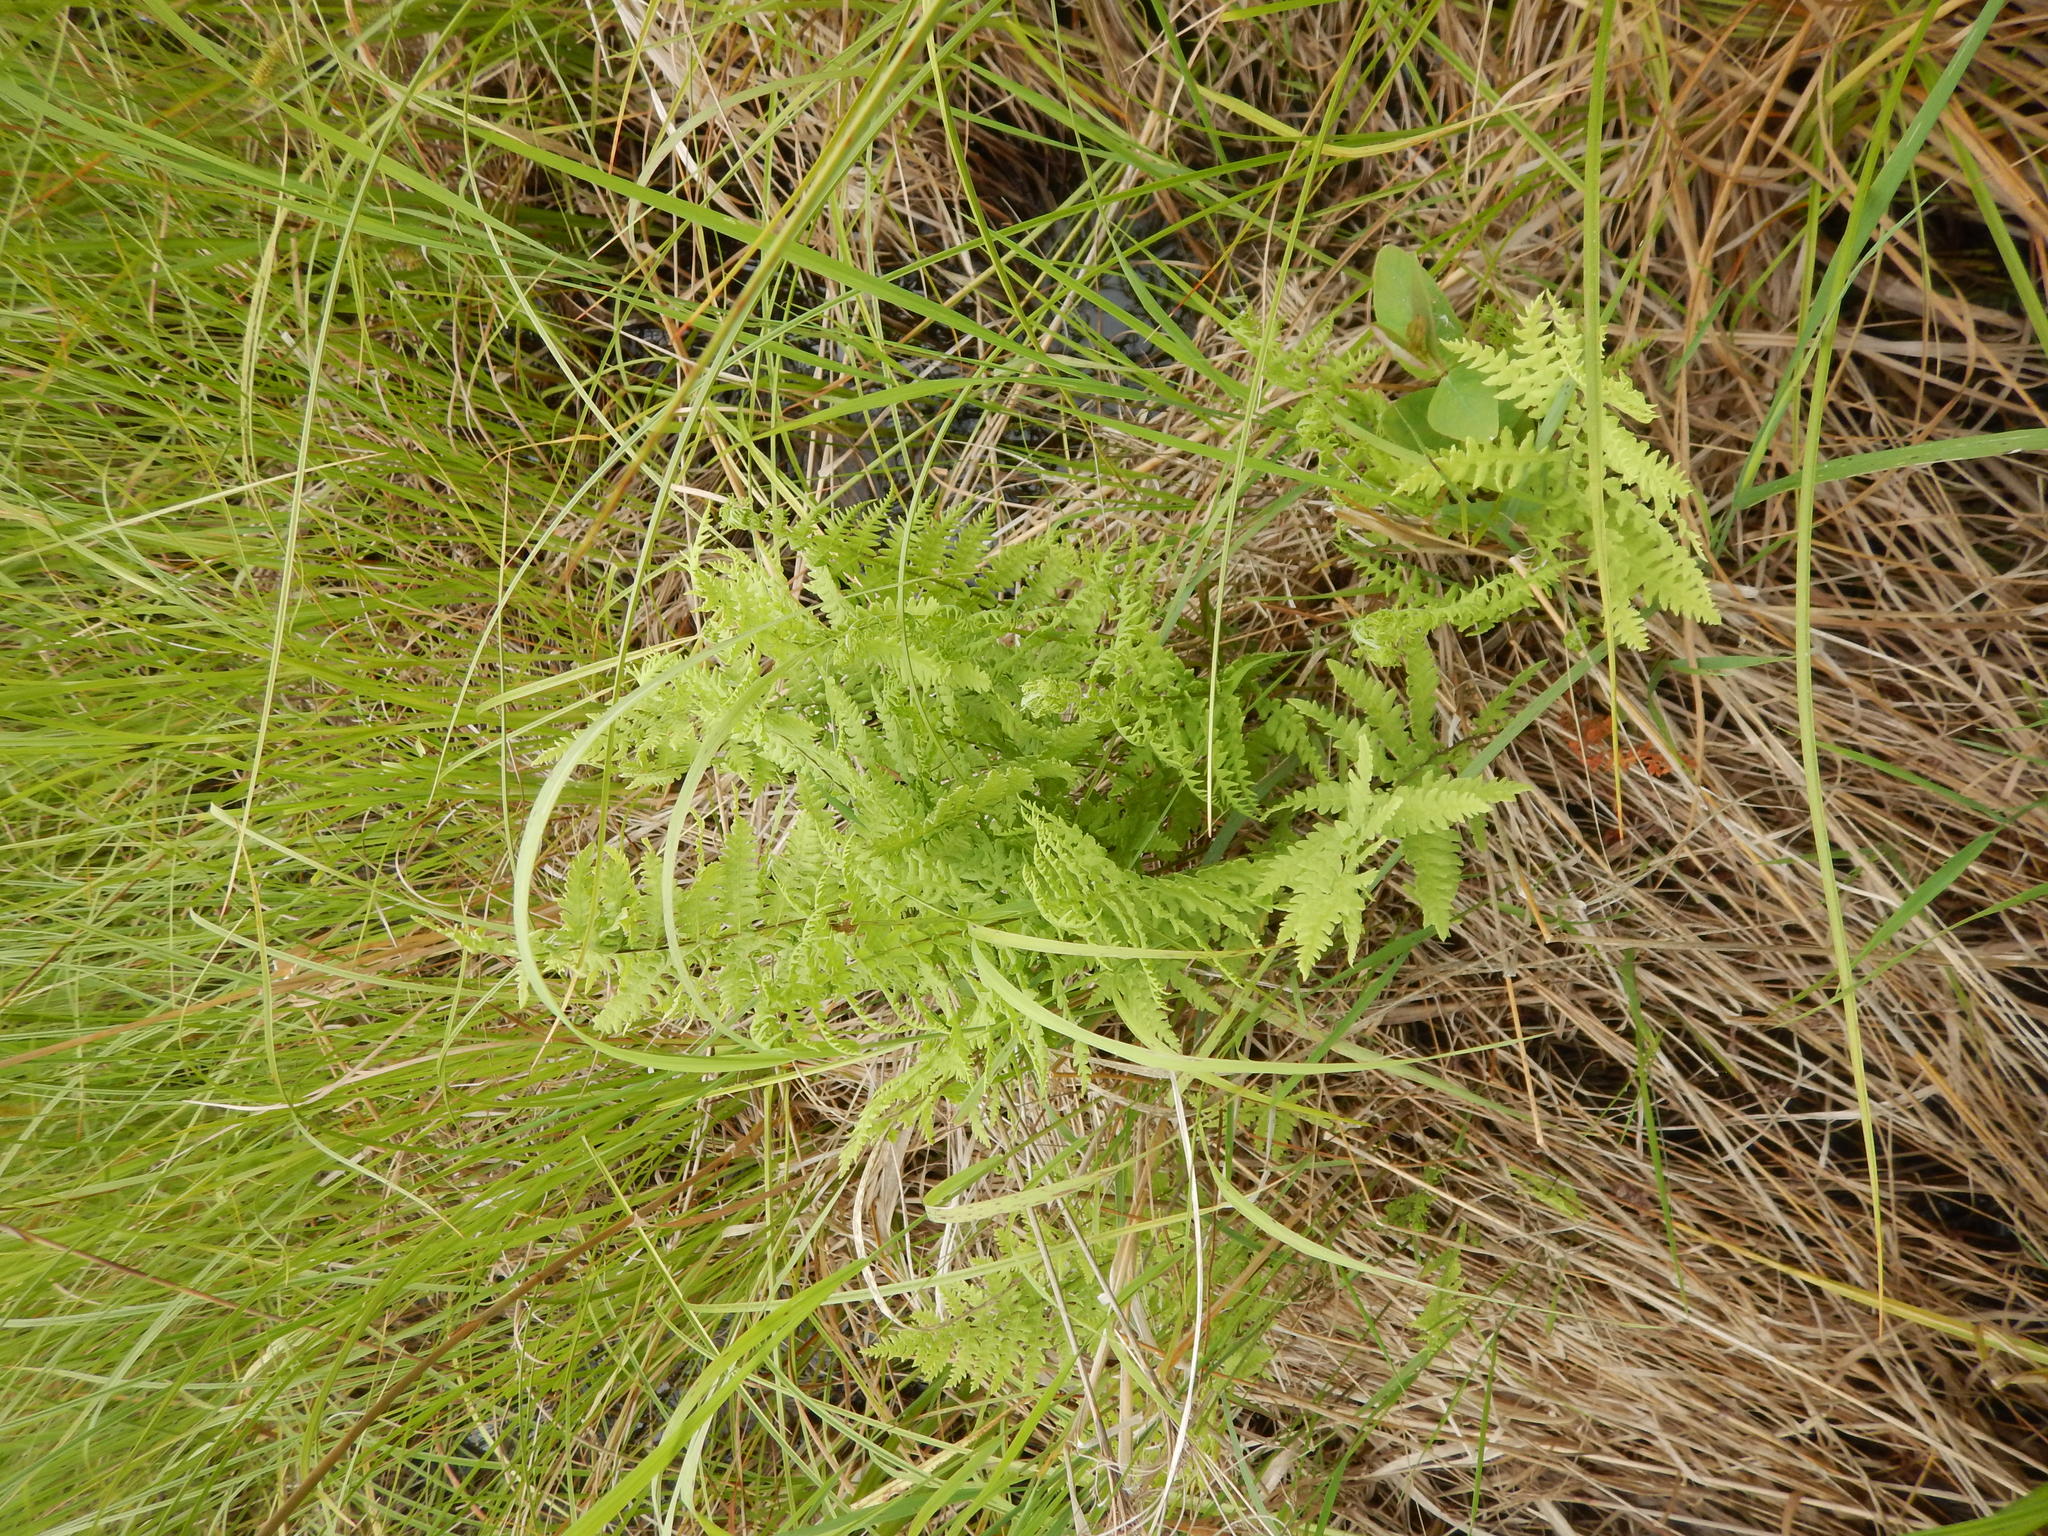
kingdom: Plantae
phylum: Tracheophyta
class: Polypodiopsida
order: Polypodiales
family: Thelypteridaceae
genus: Thelypteris
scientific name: Thelypteris palustris
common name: Marsh fern
